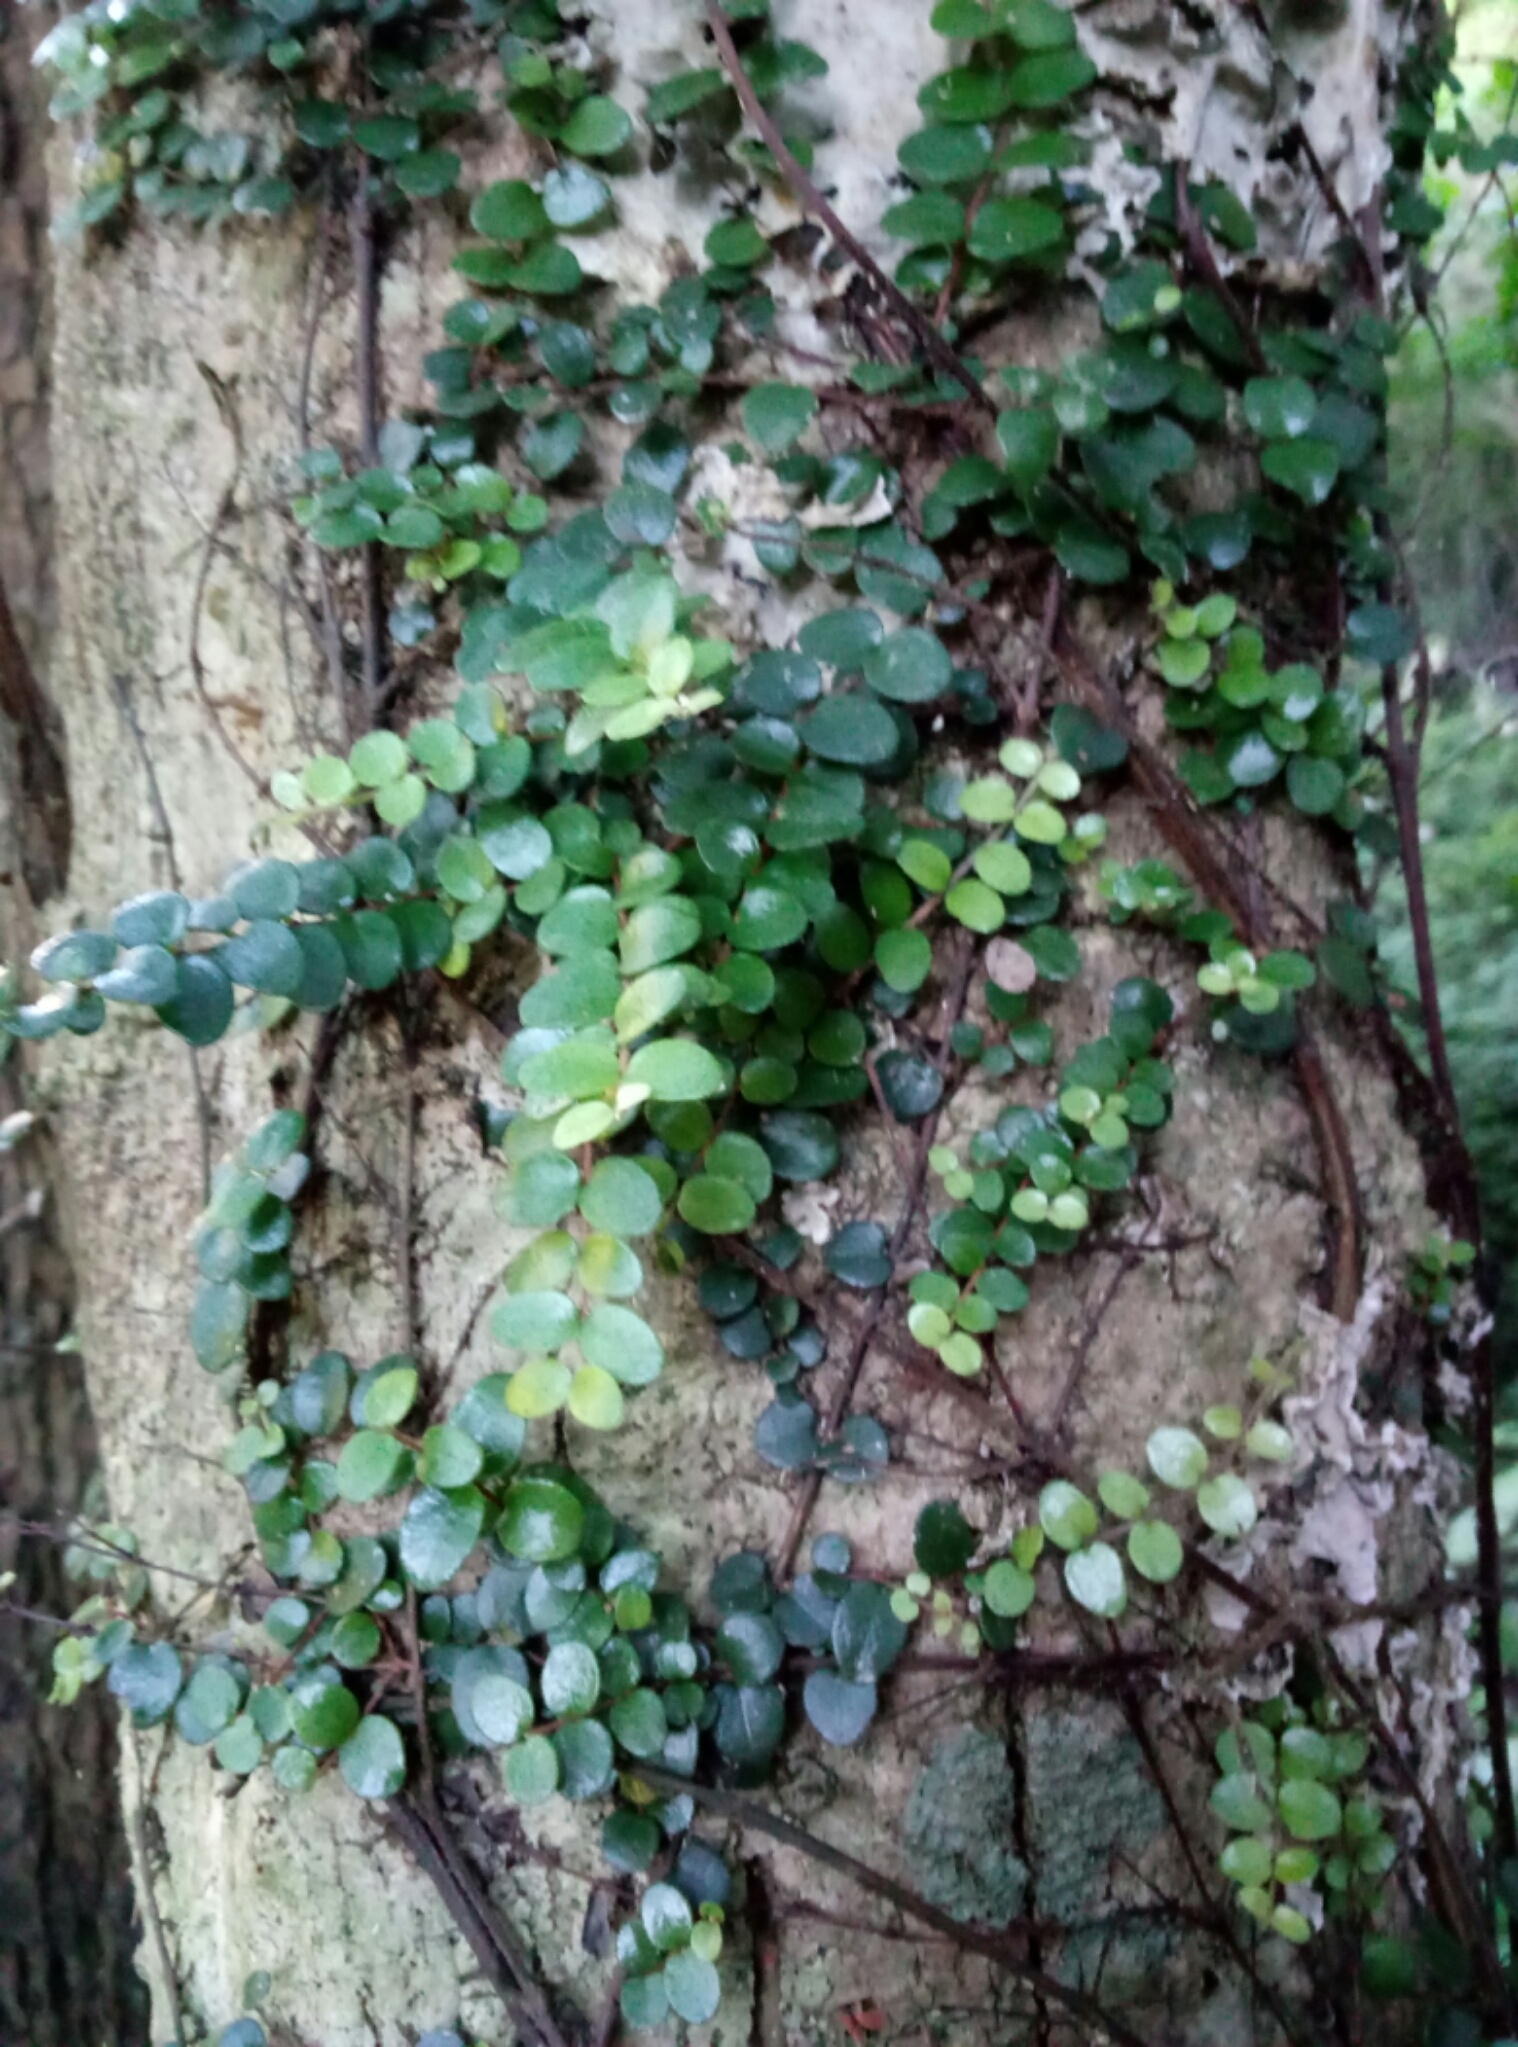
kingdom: Plantae
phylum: Tracheophyta
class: Magnoliopsida
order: Myrtales
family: Myrtaceae
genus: Metrosideros
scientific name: Metrosideros perforata
